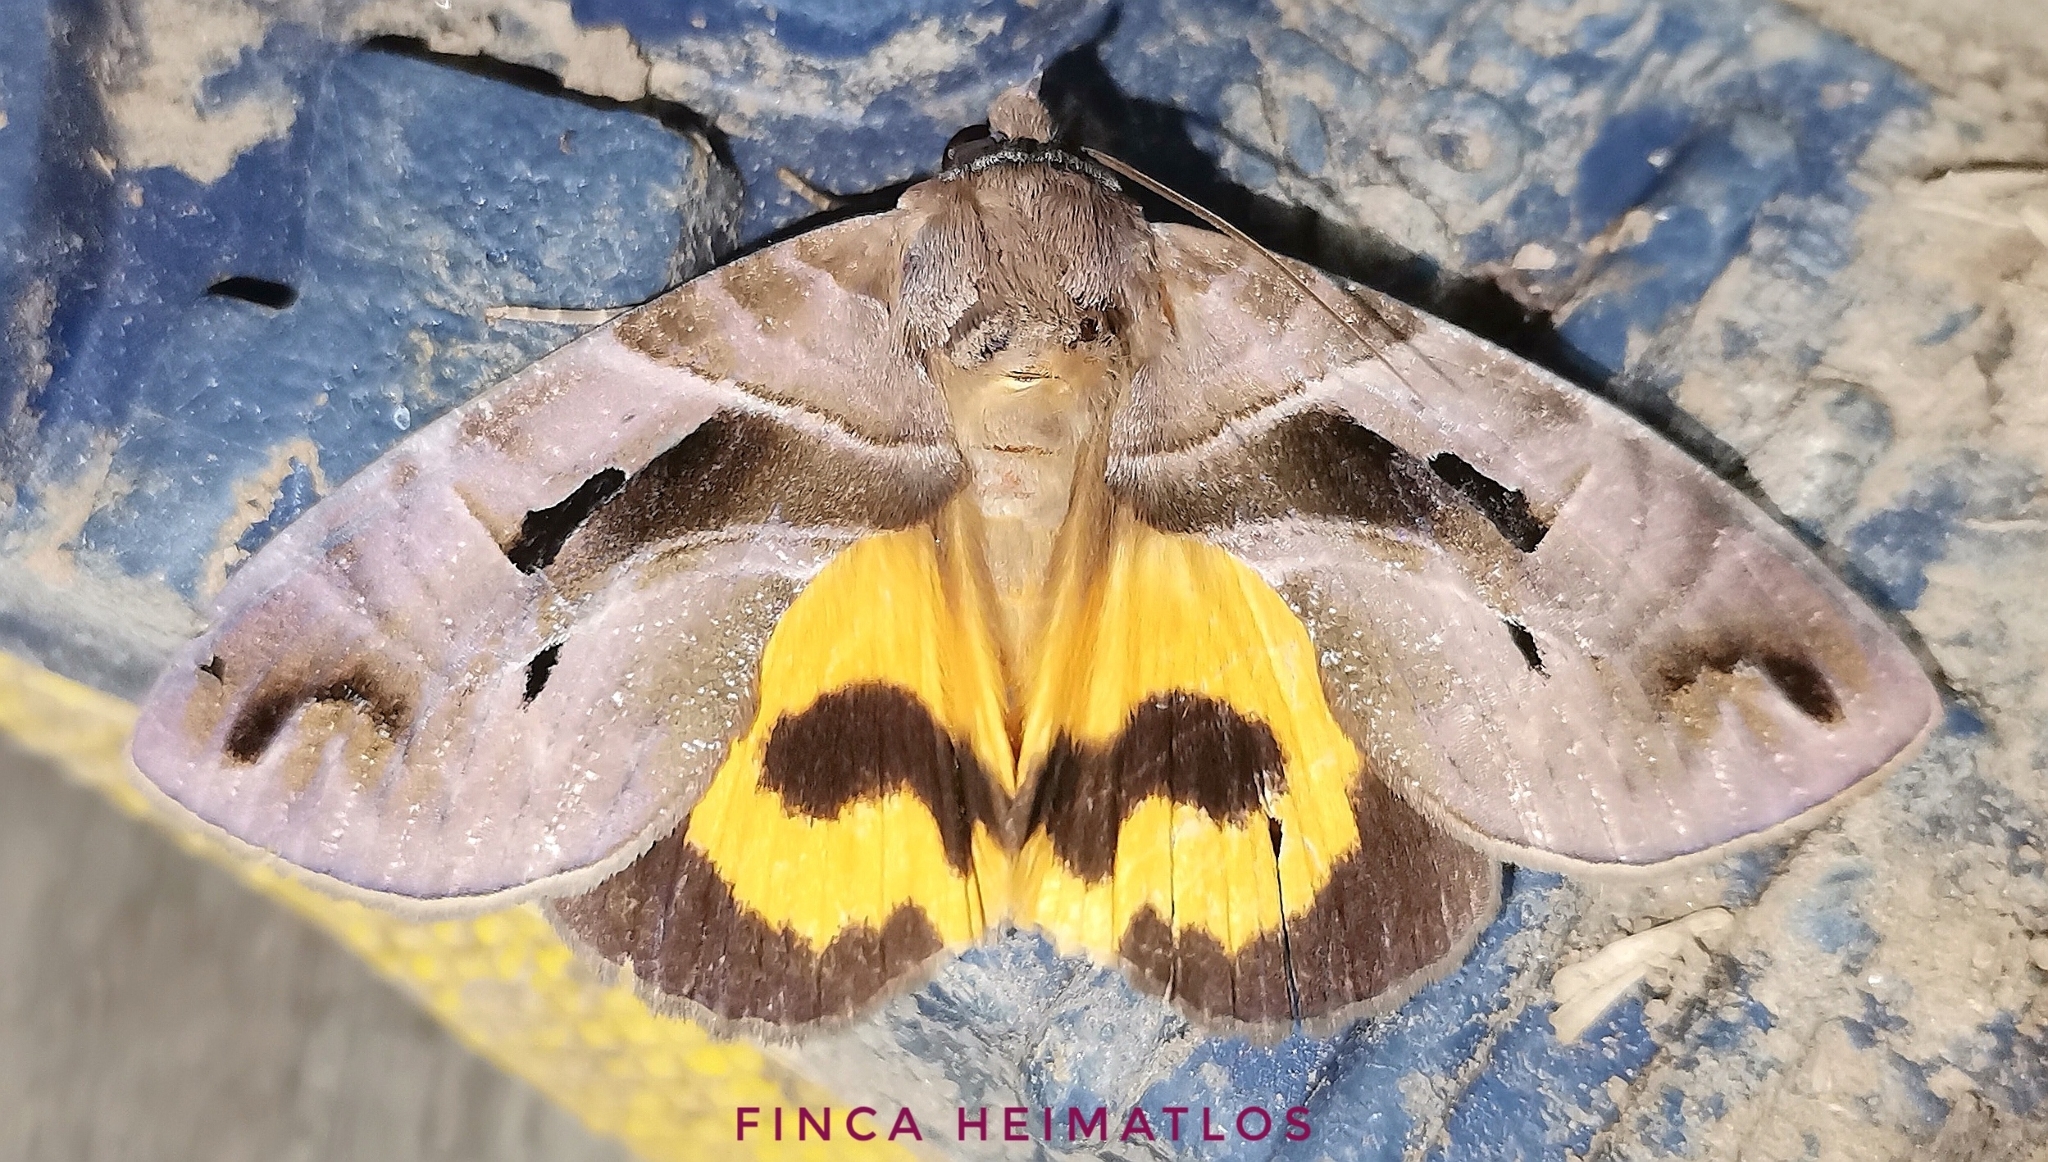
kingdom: Animalia
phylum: Arthropoda
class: Insecta
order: Lepidoptera
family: Erebidae
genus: Eudocima
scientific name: Eudocima memorans
